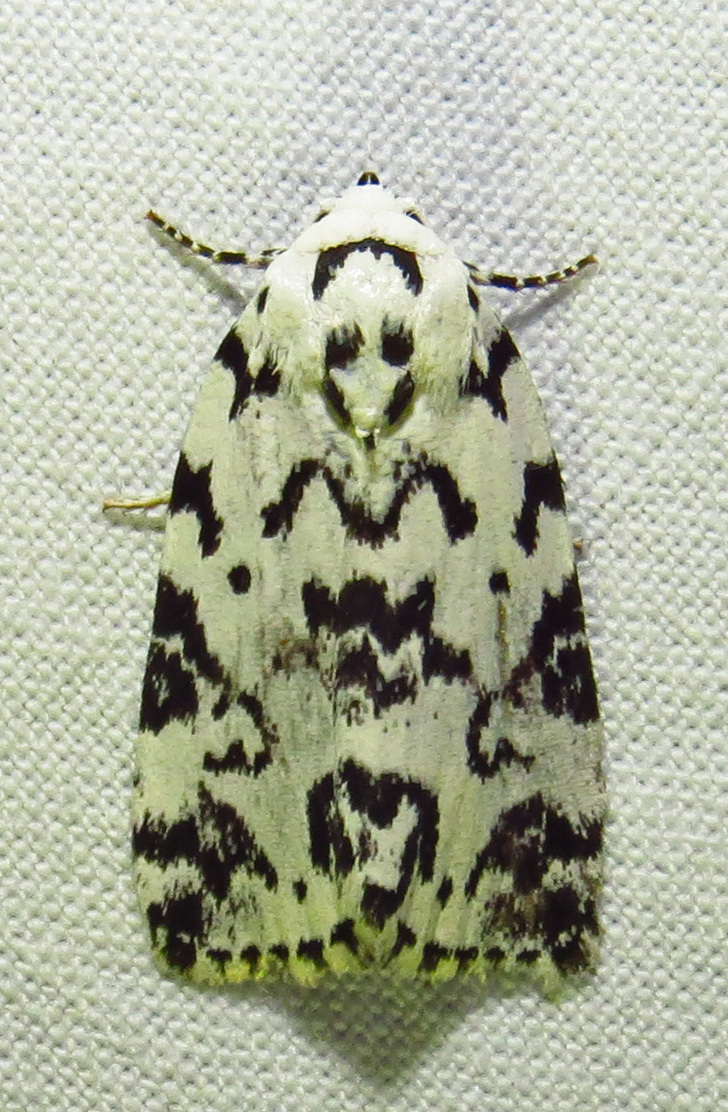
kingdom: Animalia
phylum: Arthropoda
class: Insecta
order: Lepidoptera
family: Noctuidae
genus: Polygrammate
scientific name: Polygrammate hebraeicum
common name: Hebrew moth
